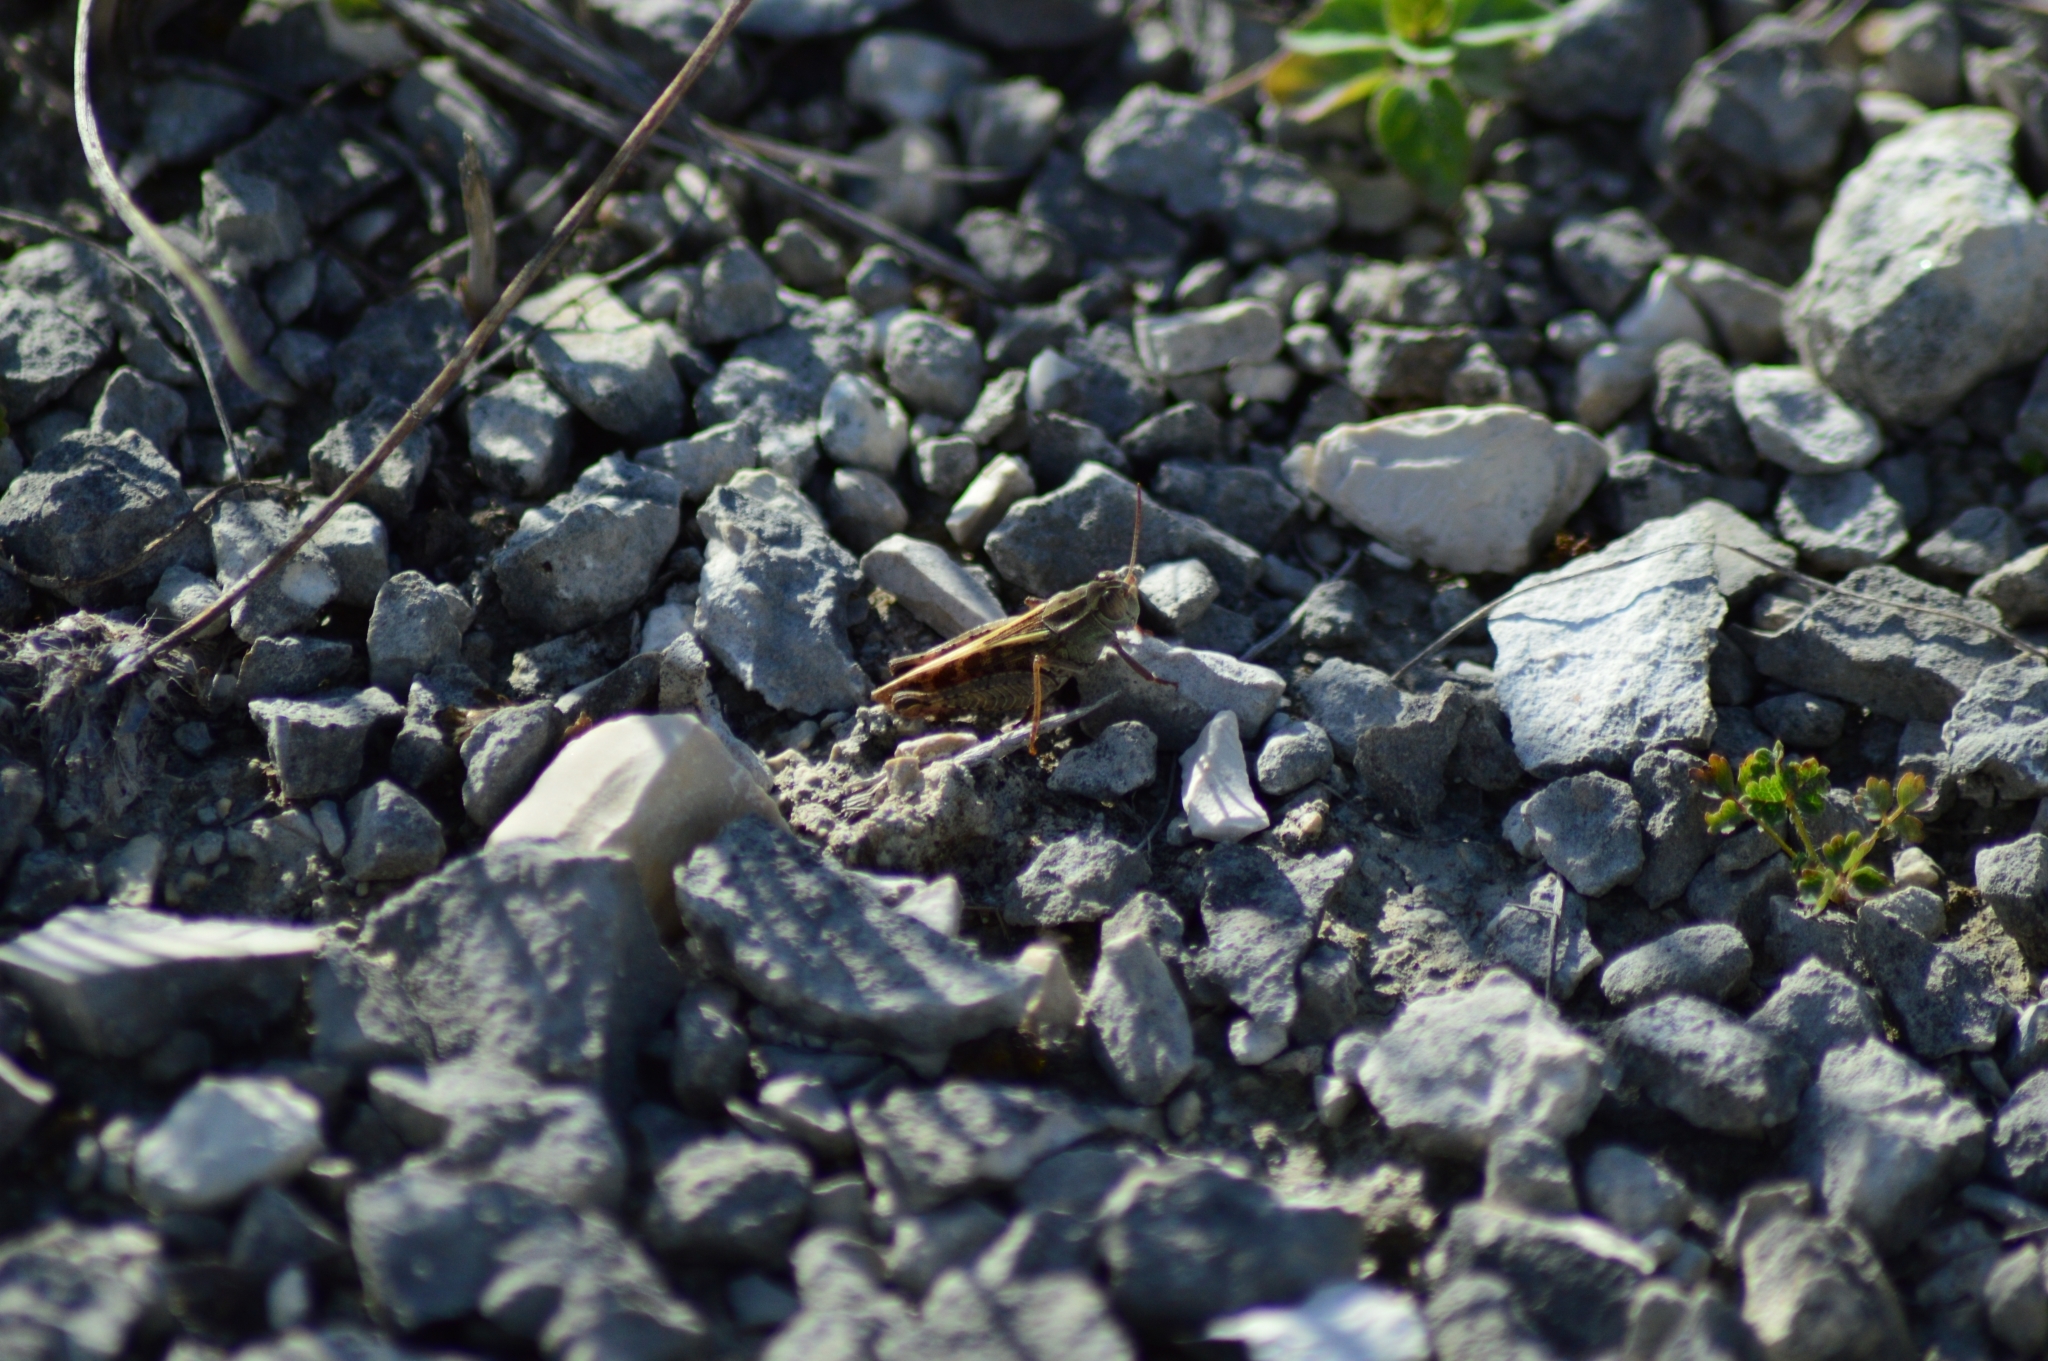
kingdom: Animalia
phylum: Arthropoda
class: Insecta
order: Orthoptera
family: Acrididae
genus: Calliptamus
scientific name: Calliptamus italicus
